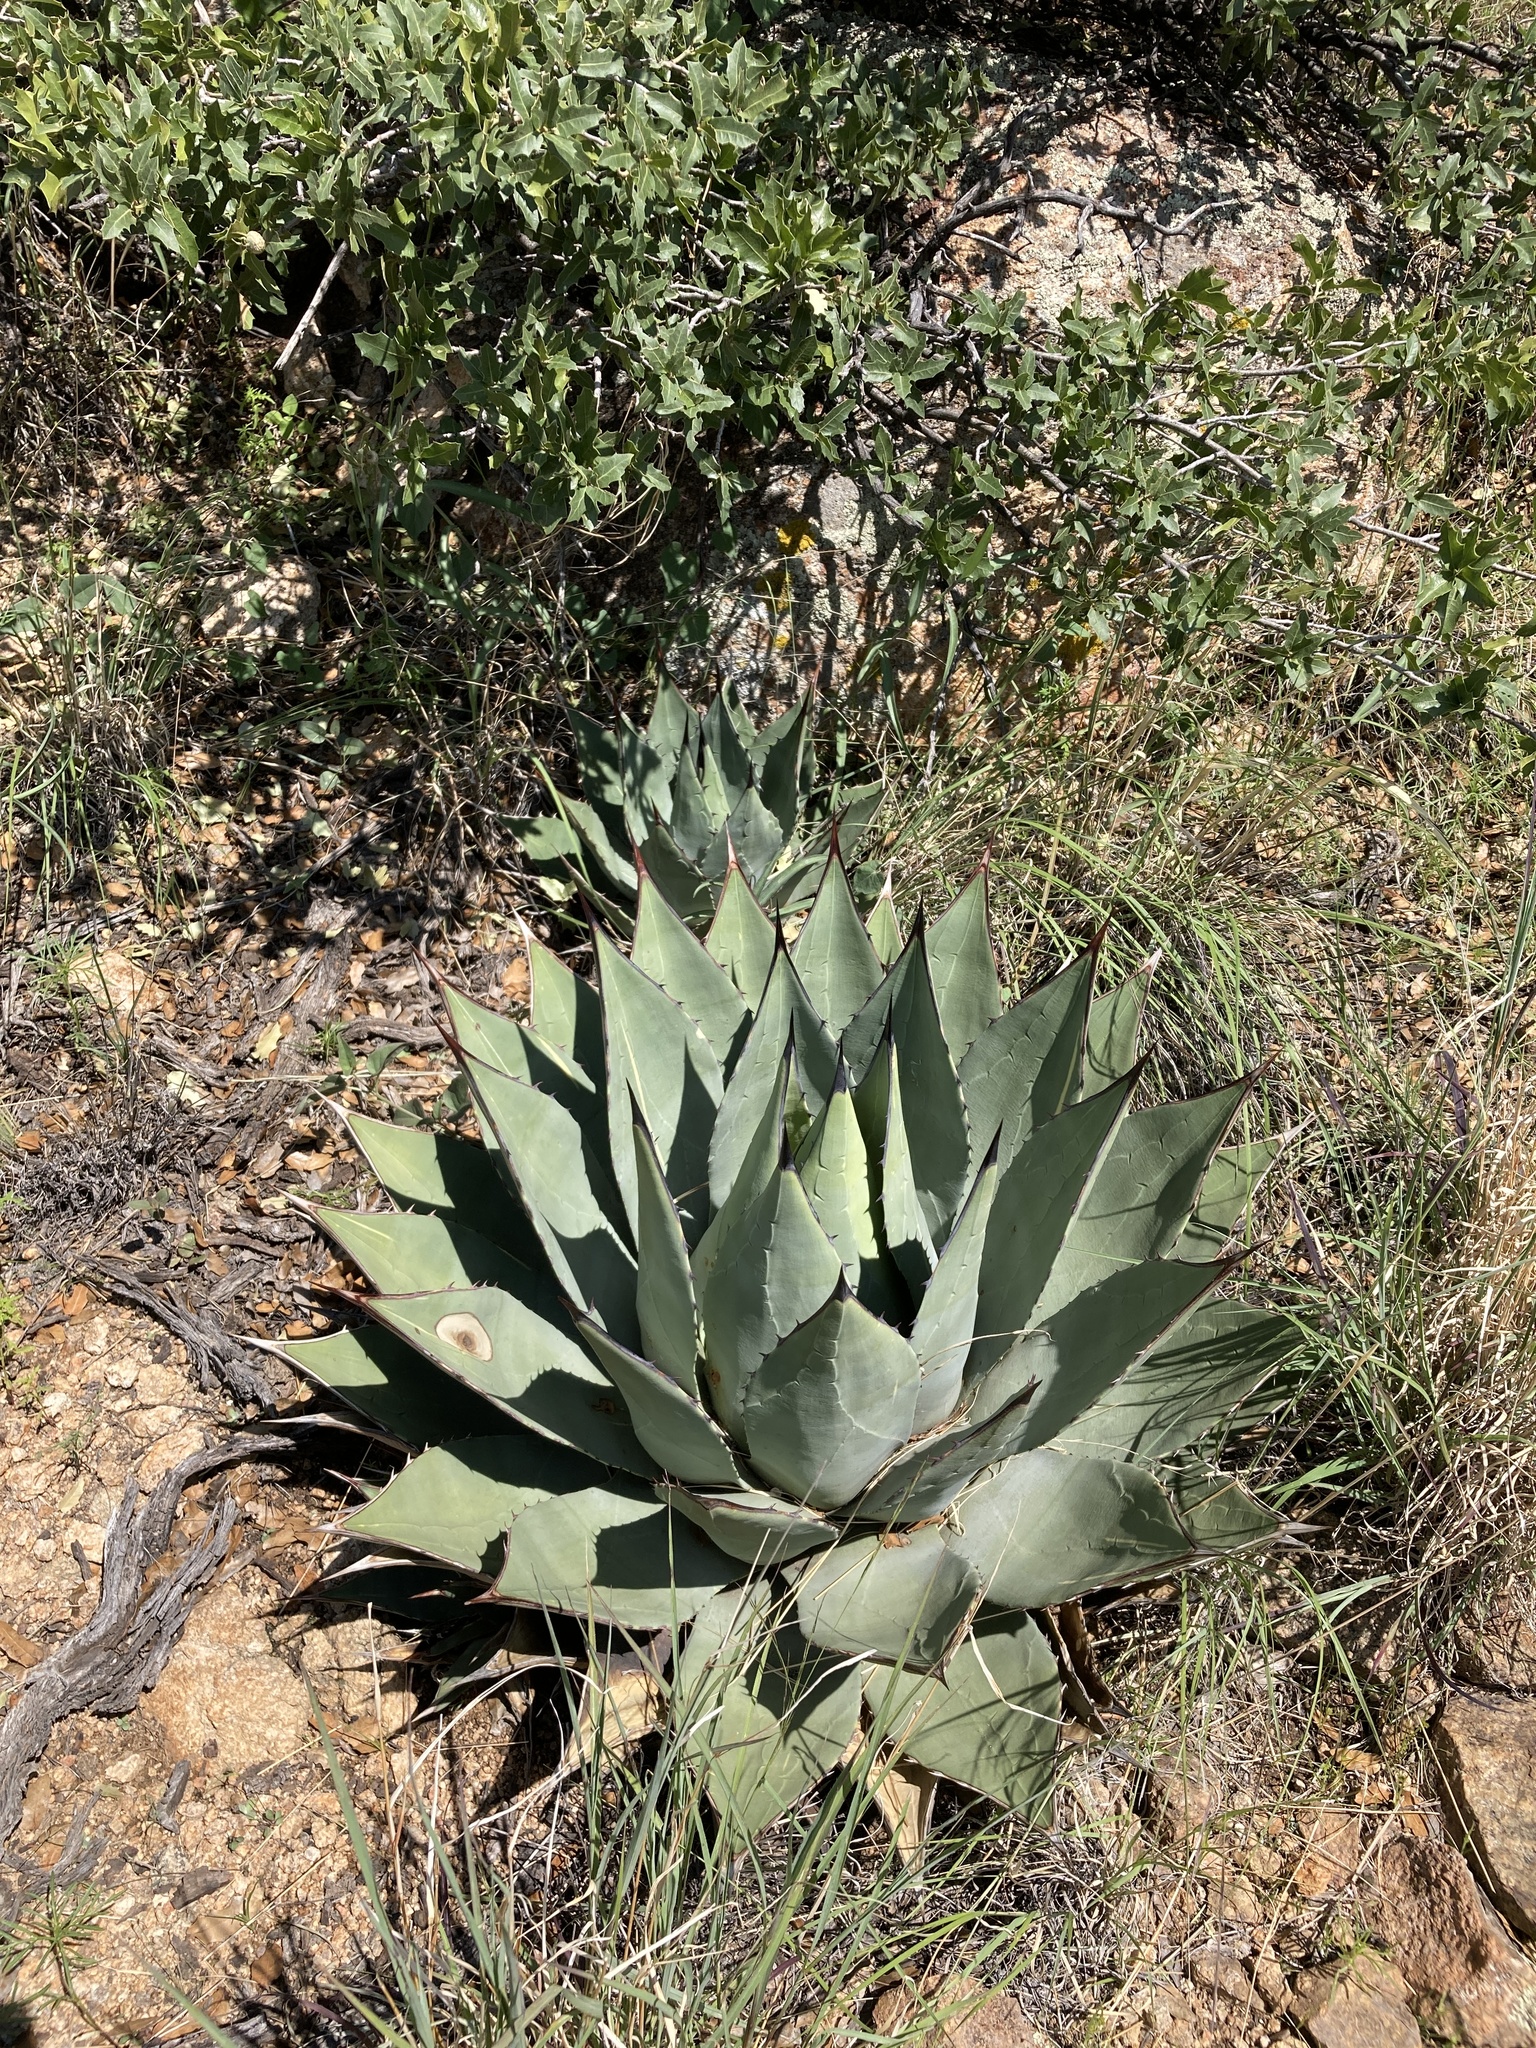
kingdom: Plantae
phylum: Tracheophyta
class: Liliopsida
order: Asparagales
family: Asparagaceae
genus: Agave
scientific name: Agave parryi
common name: Parry's agave
